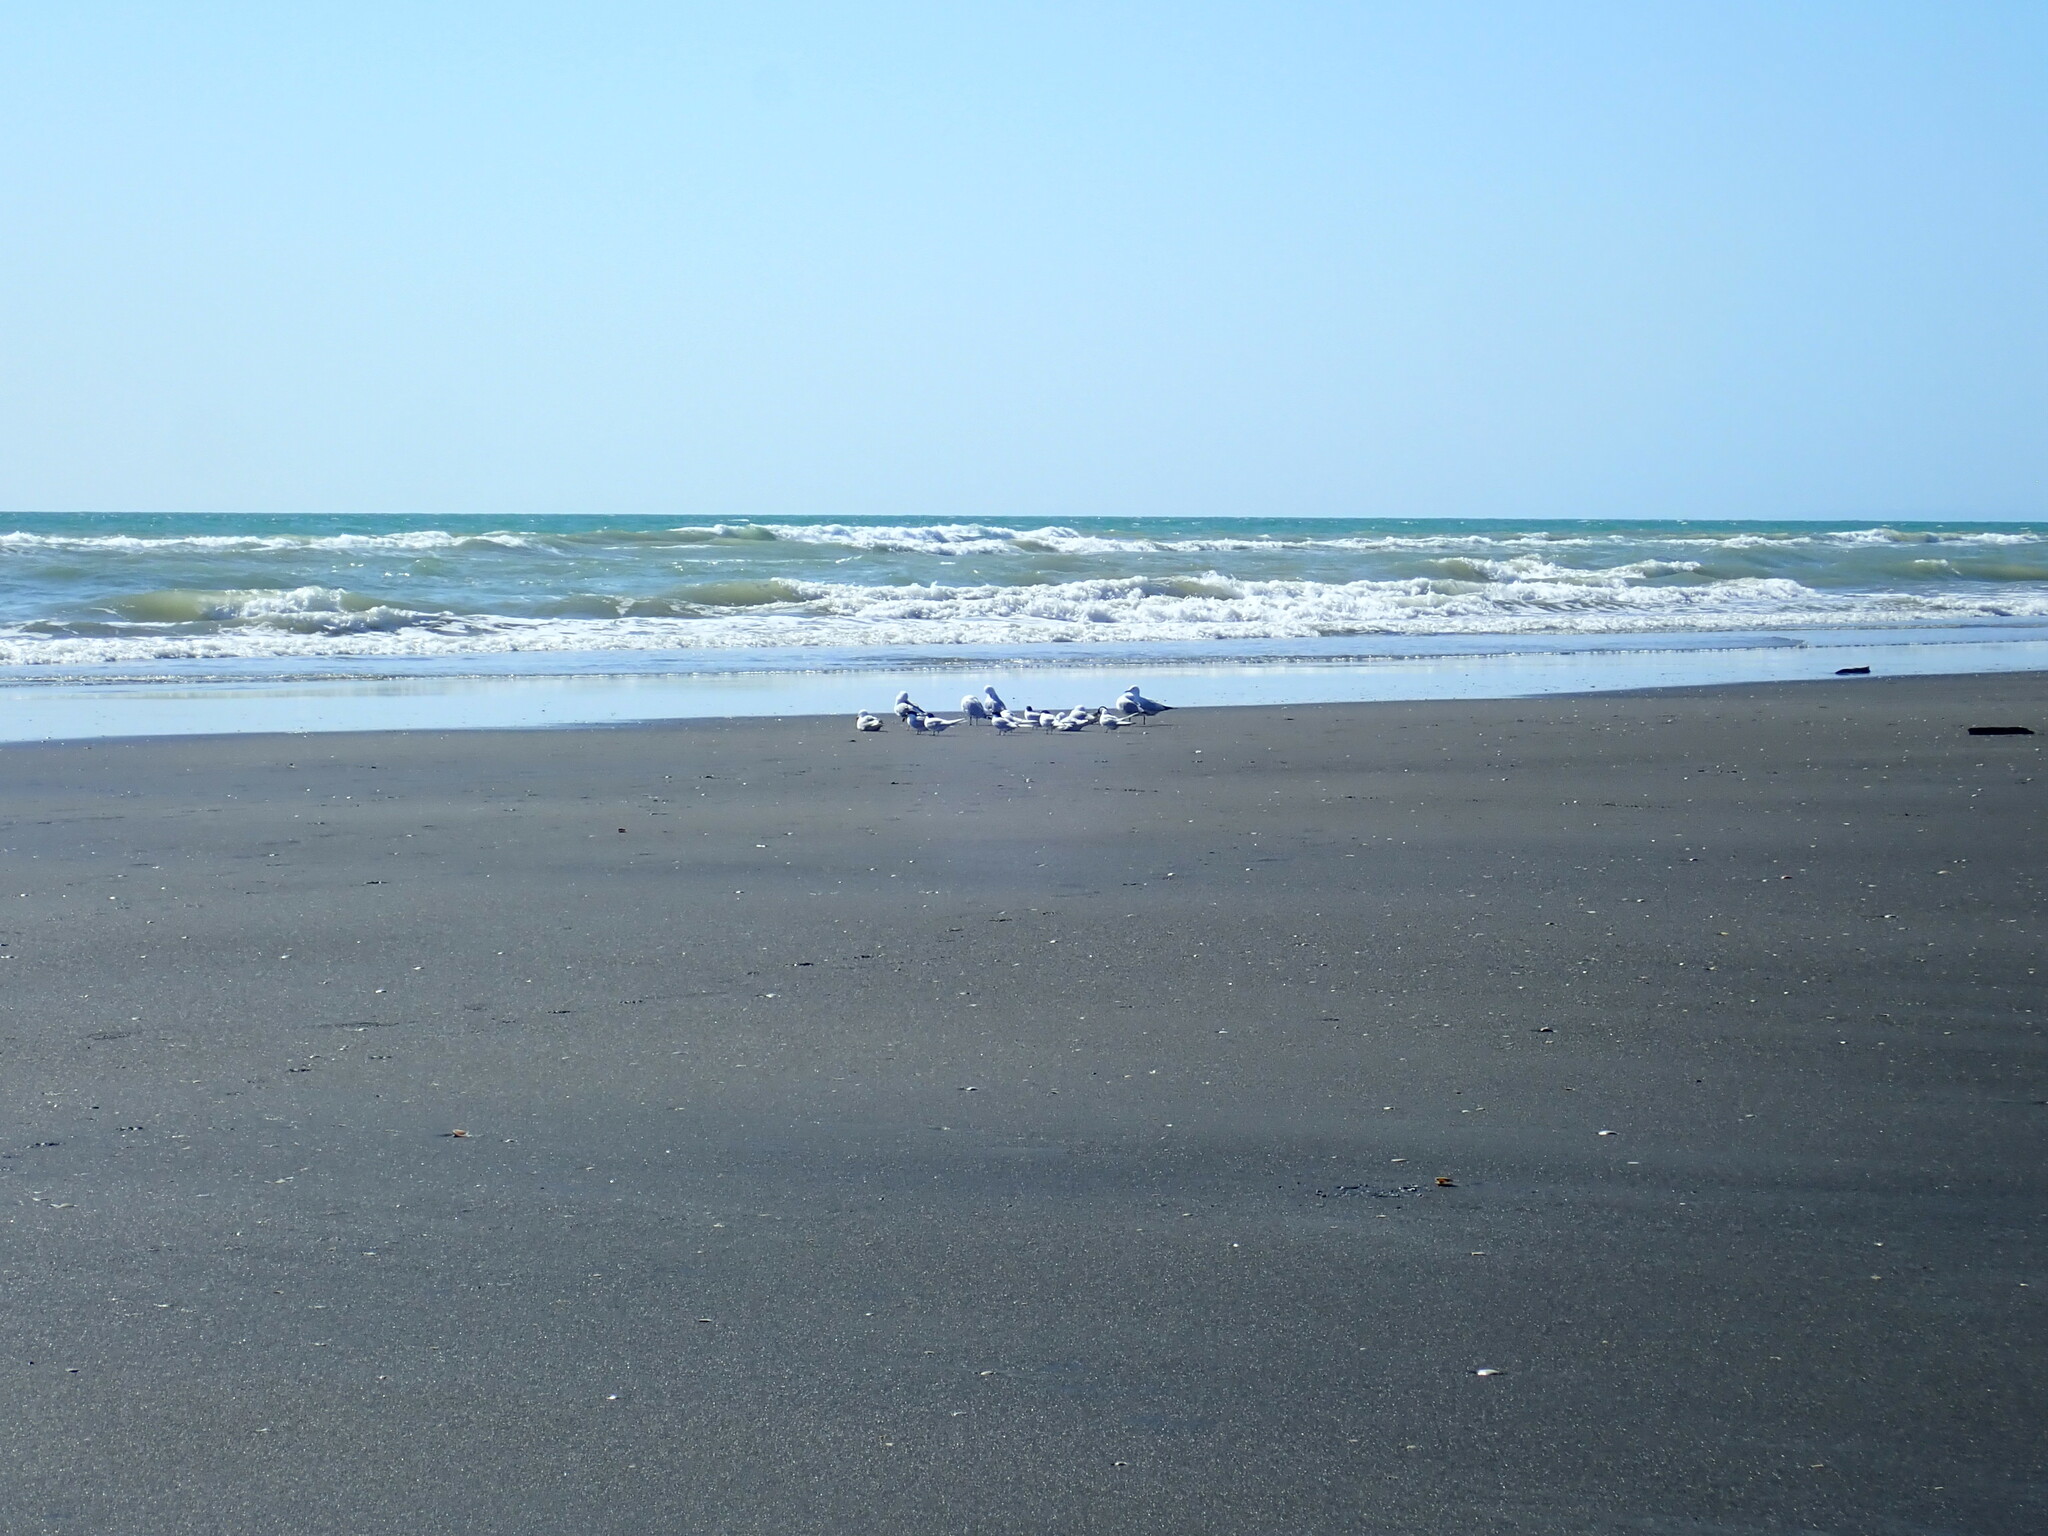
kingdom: Animalia
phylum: Chordata
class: Aves
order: Charadriiformes
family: Laridae
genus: Sterna
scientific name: Sterna striata
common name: White-fronted tern
